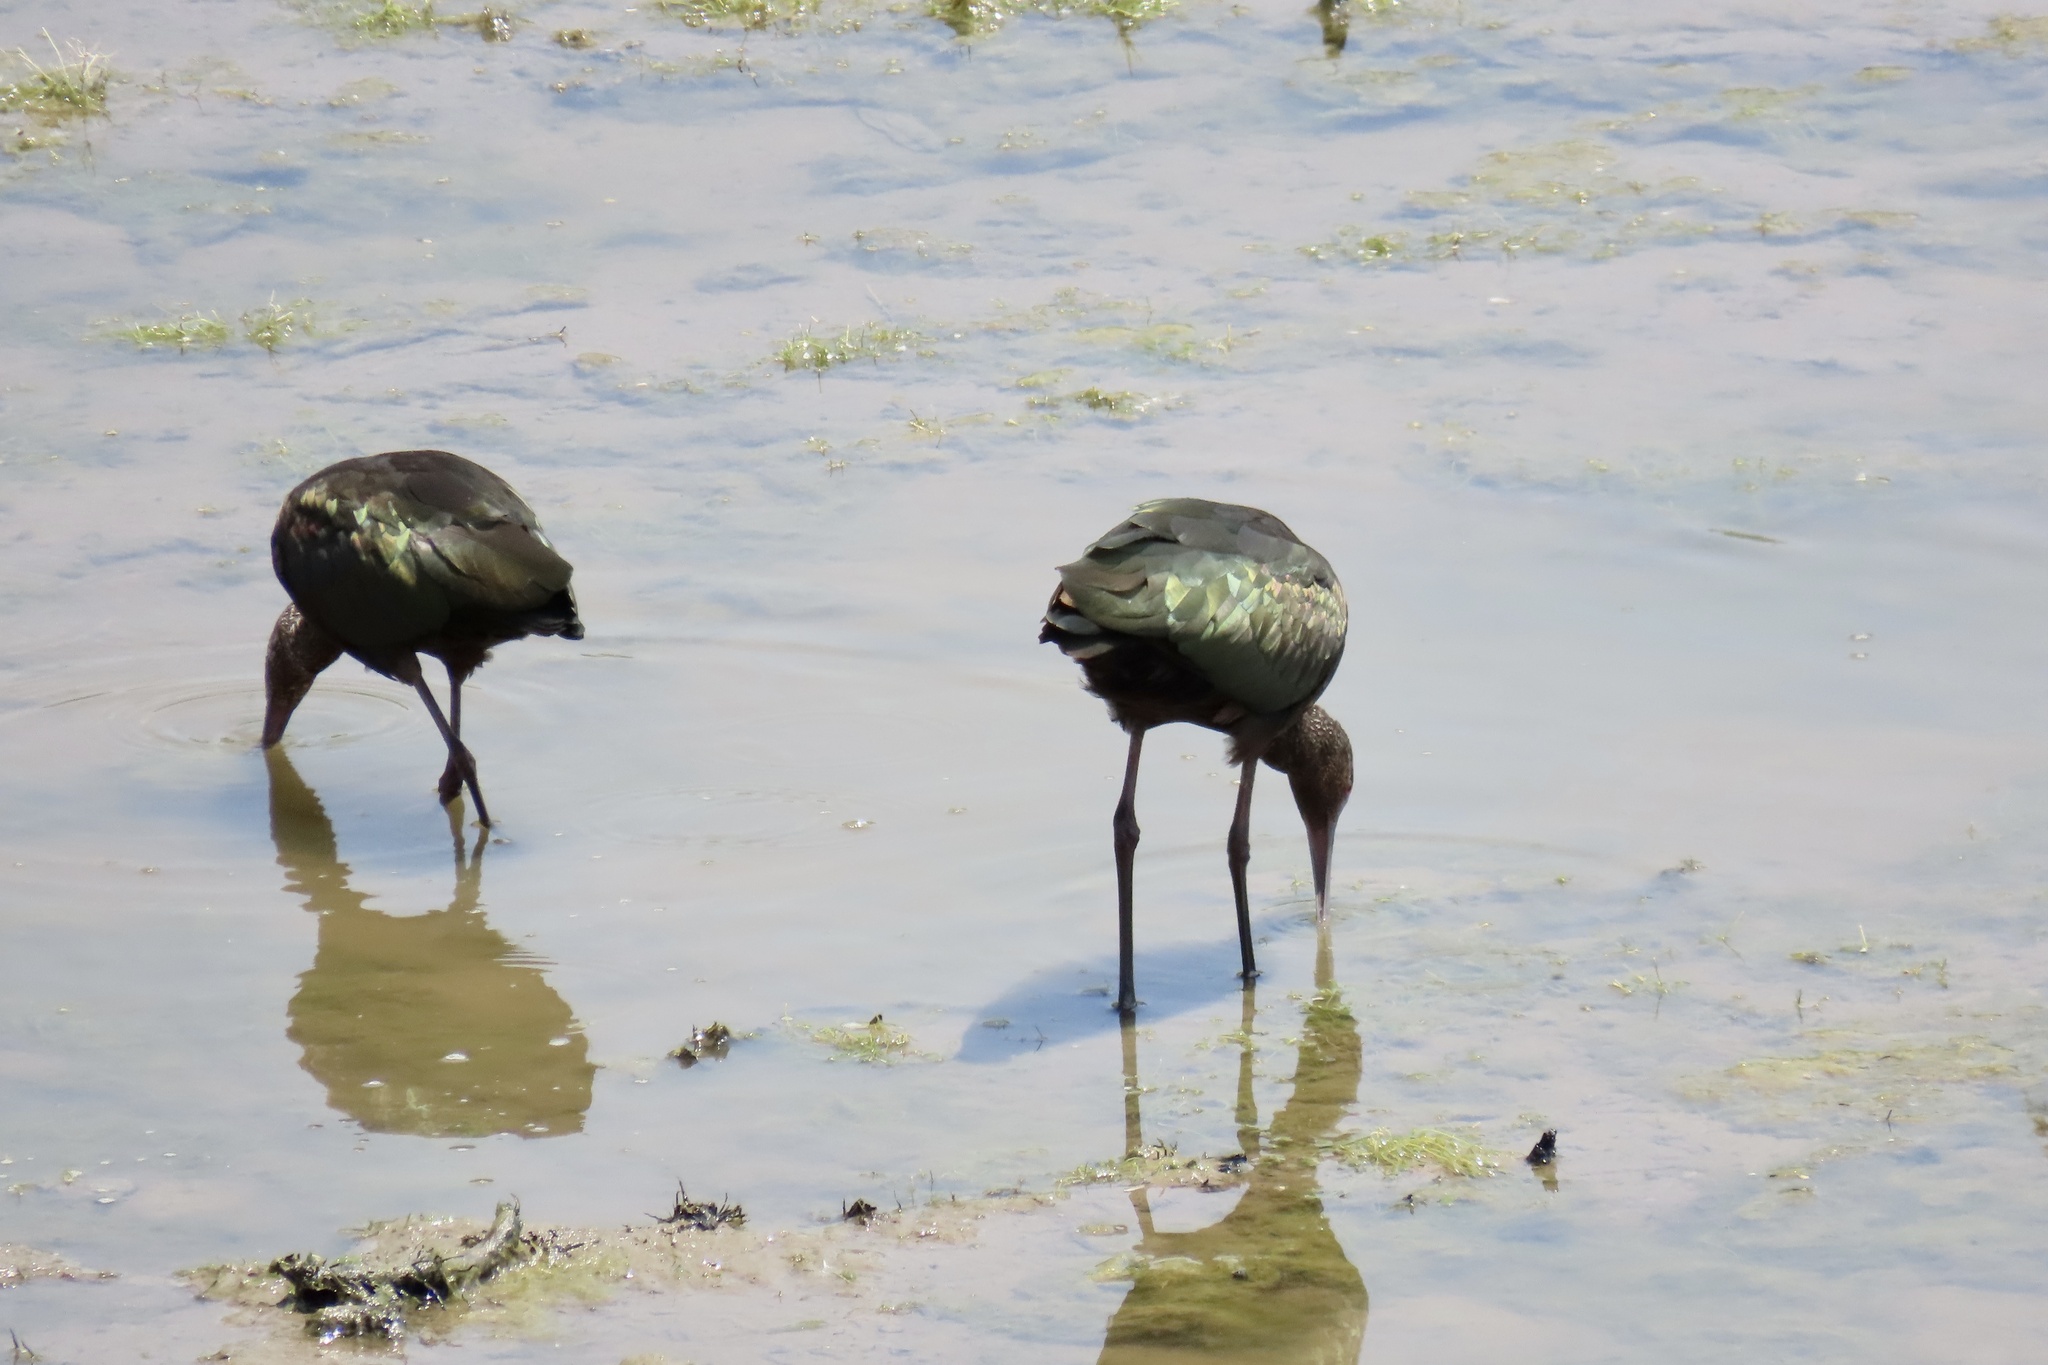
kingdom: Animalia
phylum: Chordata
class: Aves
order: Pelecaniformes
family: Threskiornithidae
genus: Plegadis
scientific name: Plegadis chihi
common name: White-faced ibis
